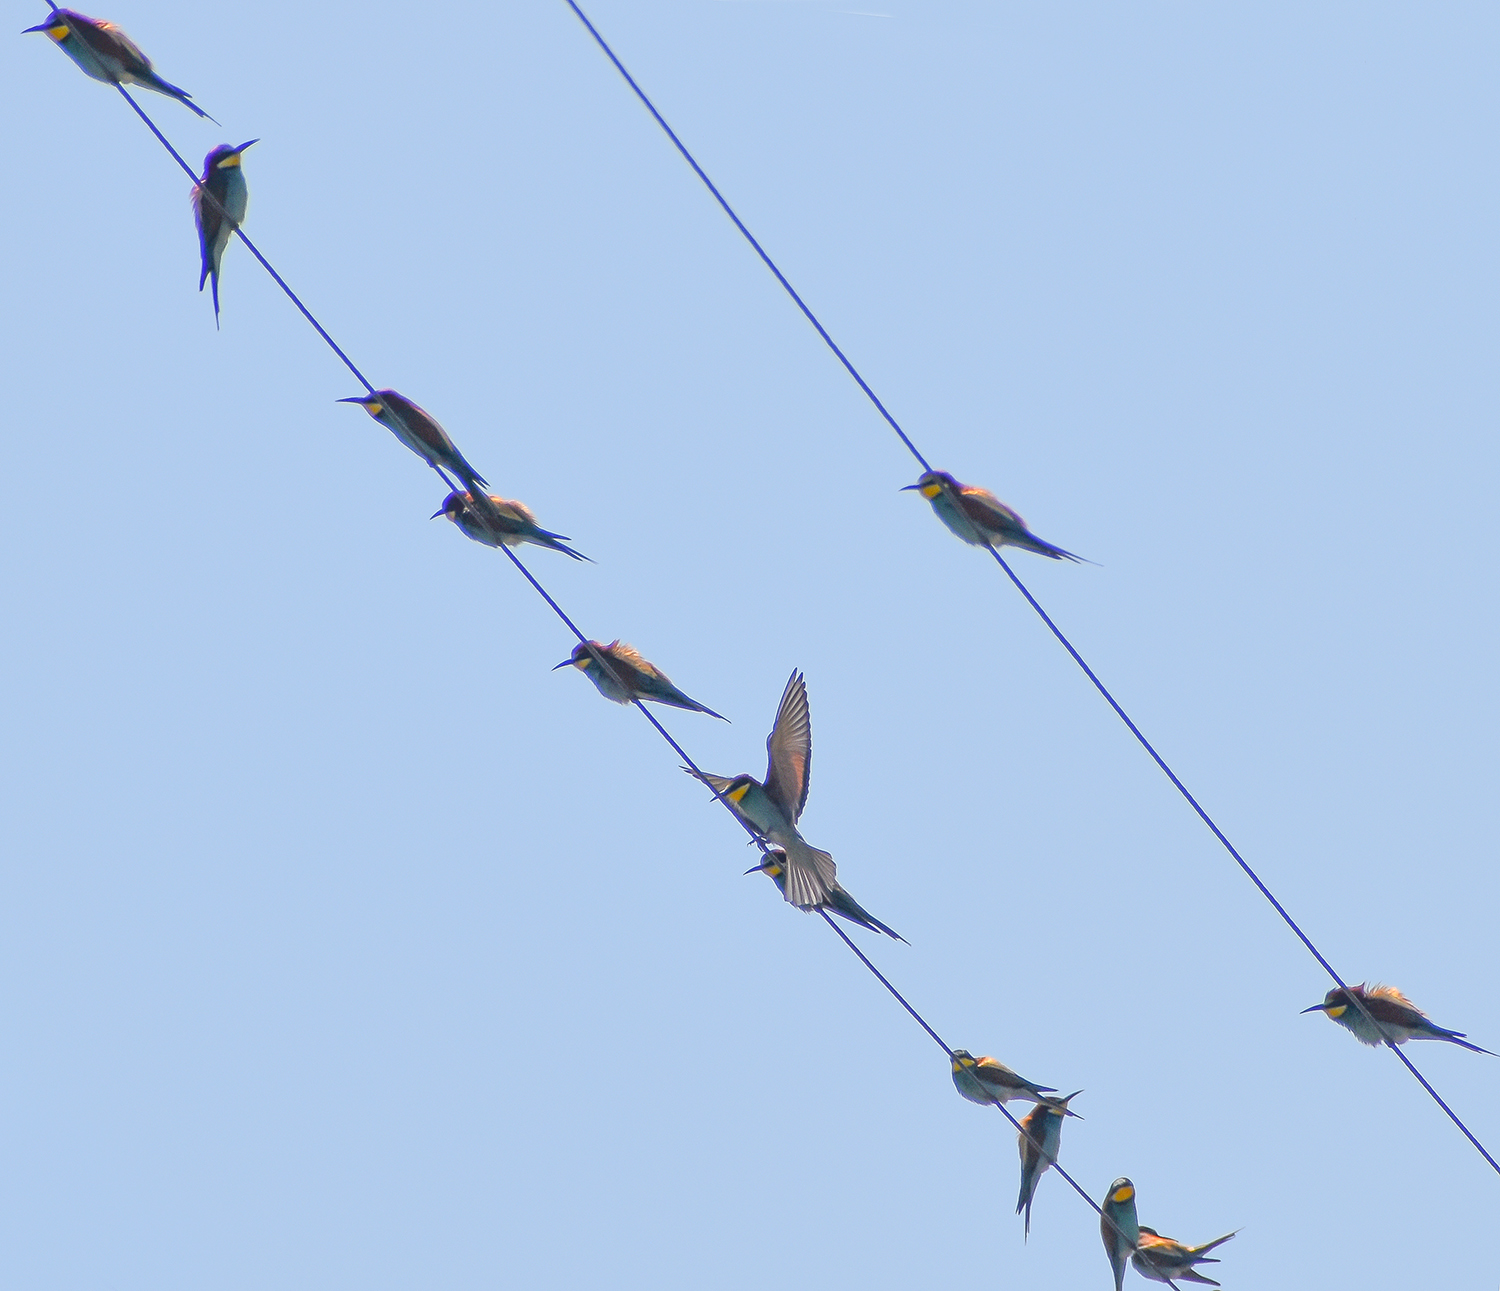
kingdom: Animalia
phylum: Chordata
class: Aves
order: Coraciiformes
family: Meropidae
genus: Merops
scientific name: Merops apiaster
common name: European bee-eater
